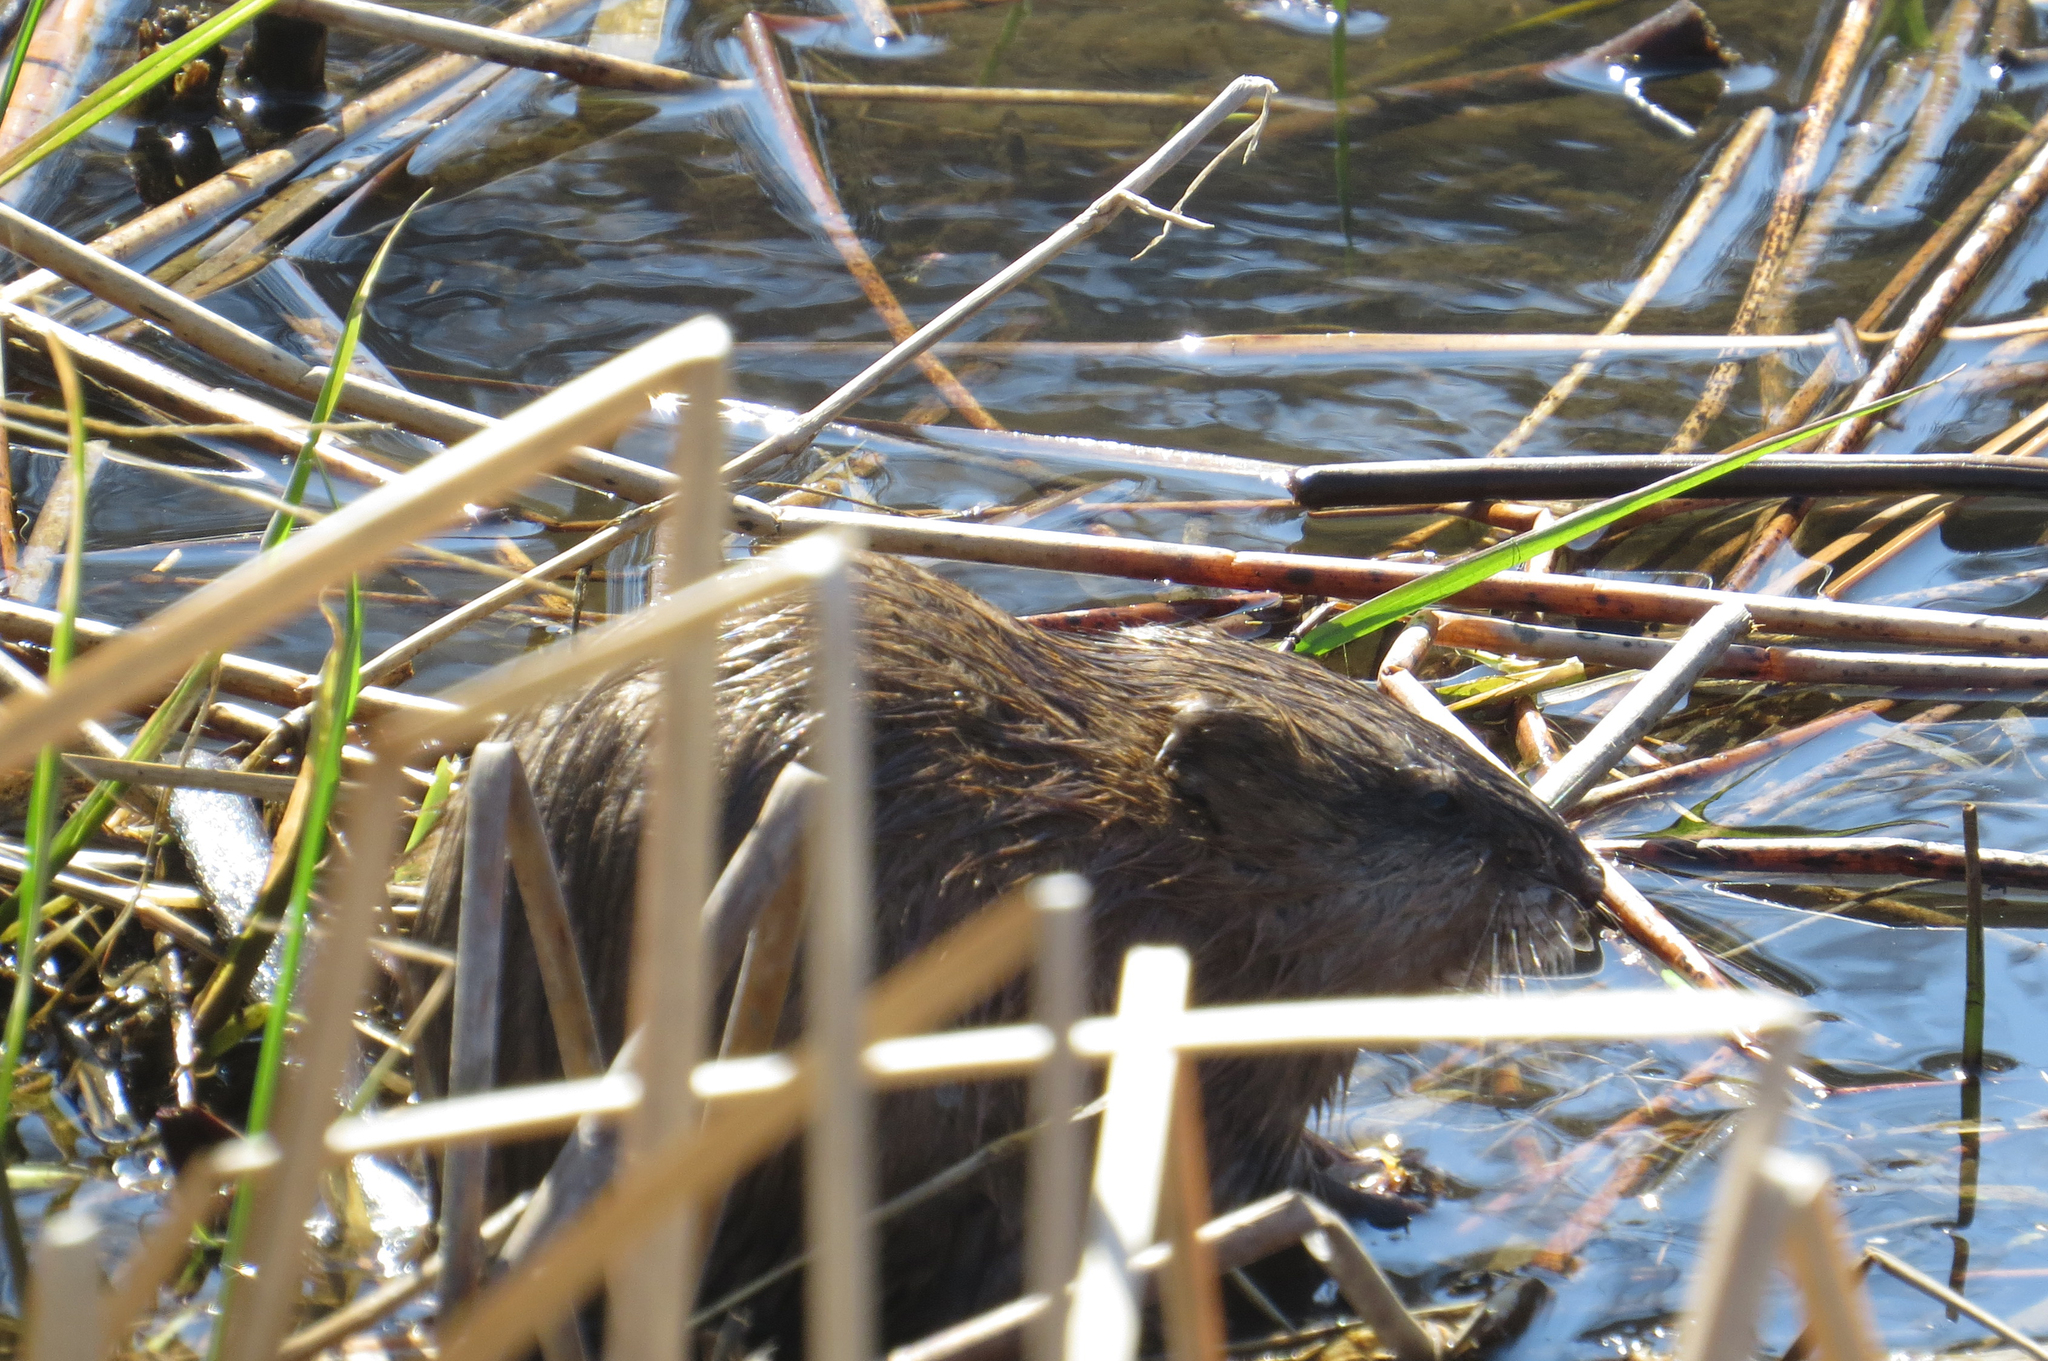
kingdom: Animalia
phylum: Chordata
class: Mammalia
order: Rodentia
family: Cricetidae
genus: Ondatra
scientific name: Ondatra zibethicus
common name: Muskrat
